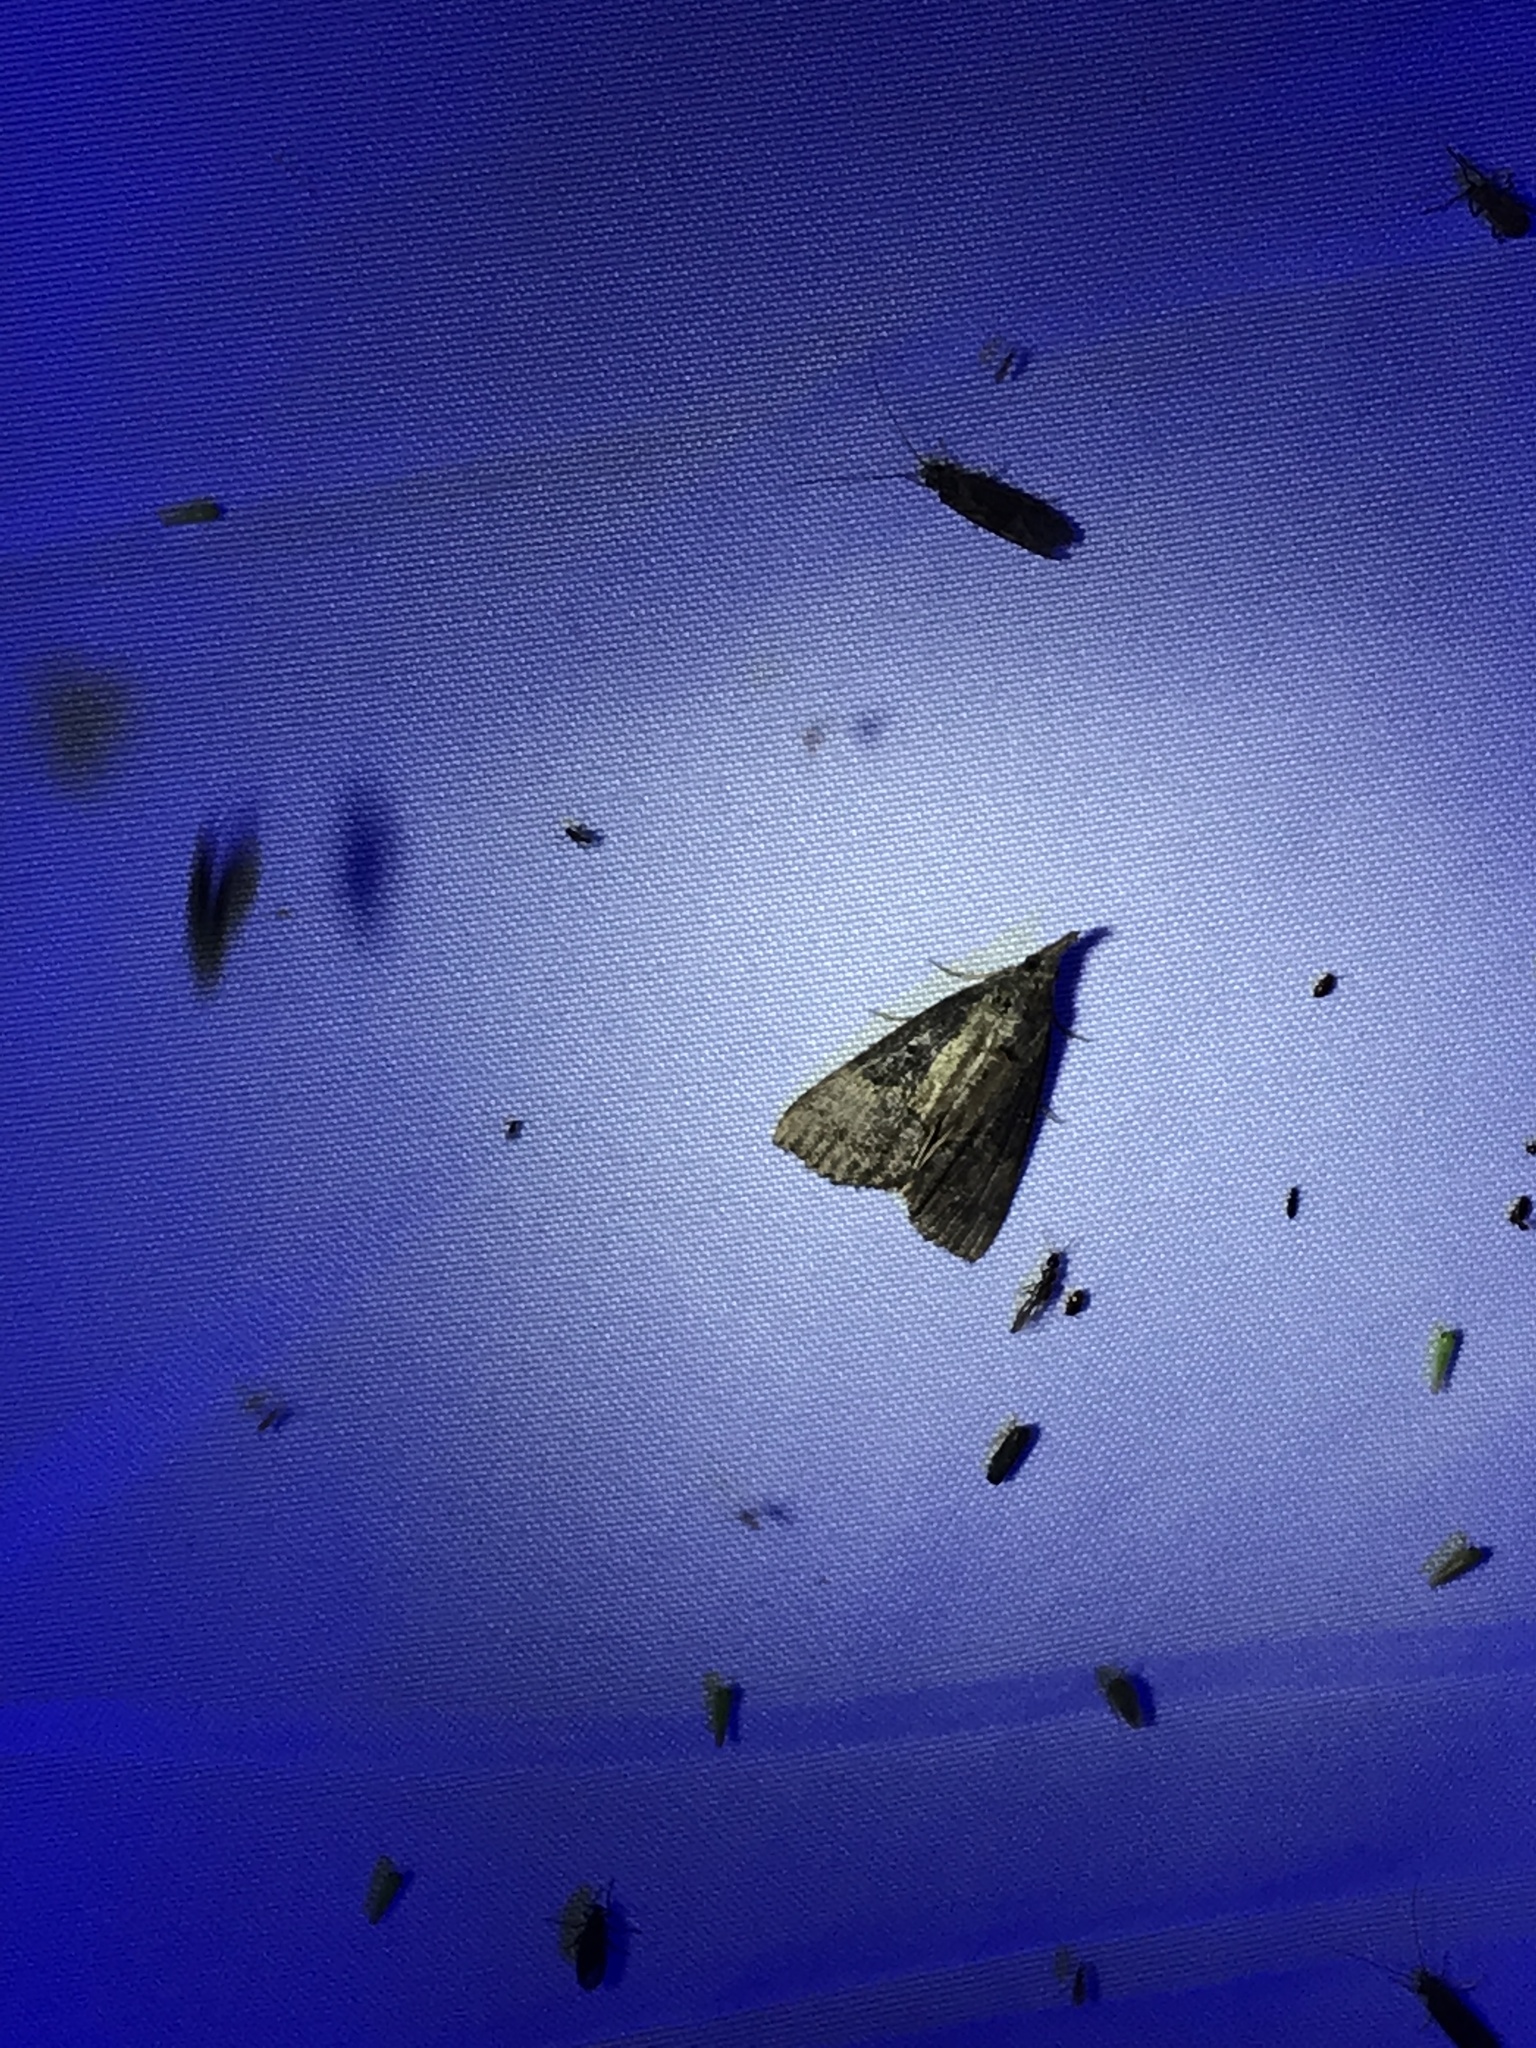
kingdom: Animalia
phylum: Arthropoda
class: Insecta
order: Lepidoptera
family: Erebidae
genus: Hypena
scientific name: Hypena scabra
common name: Green cloverworm
